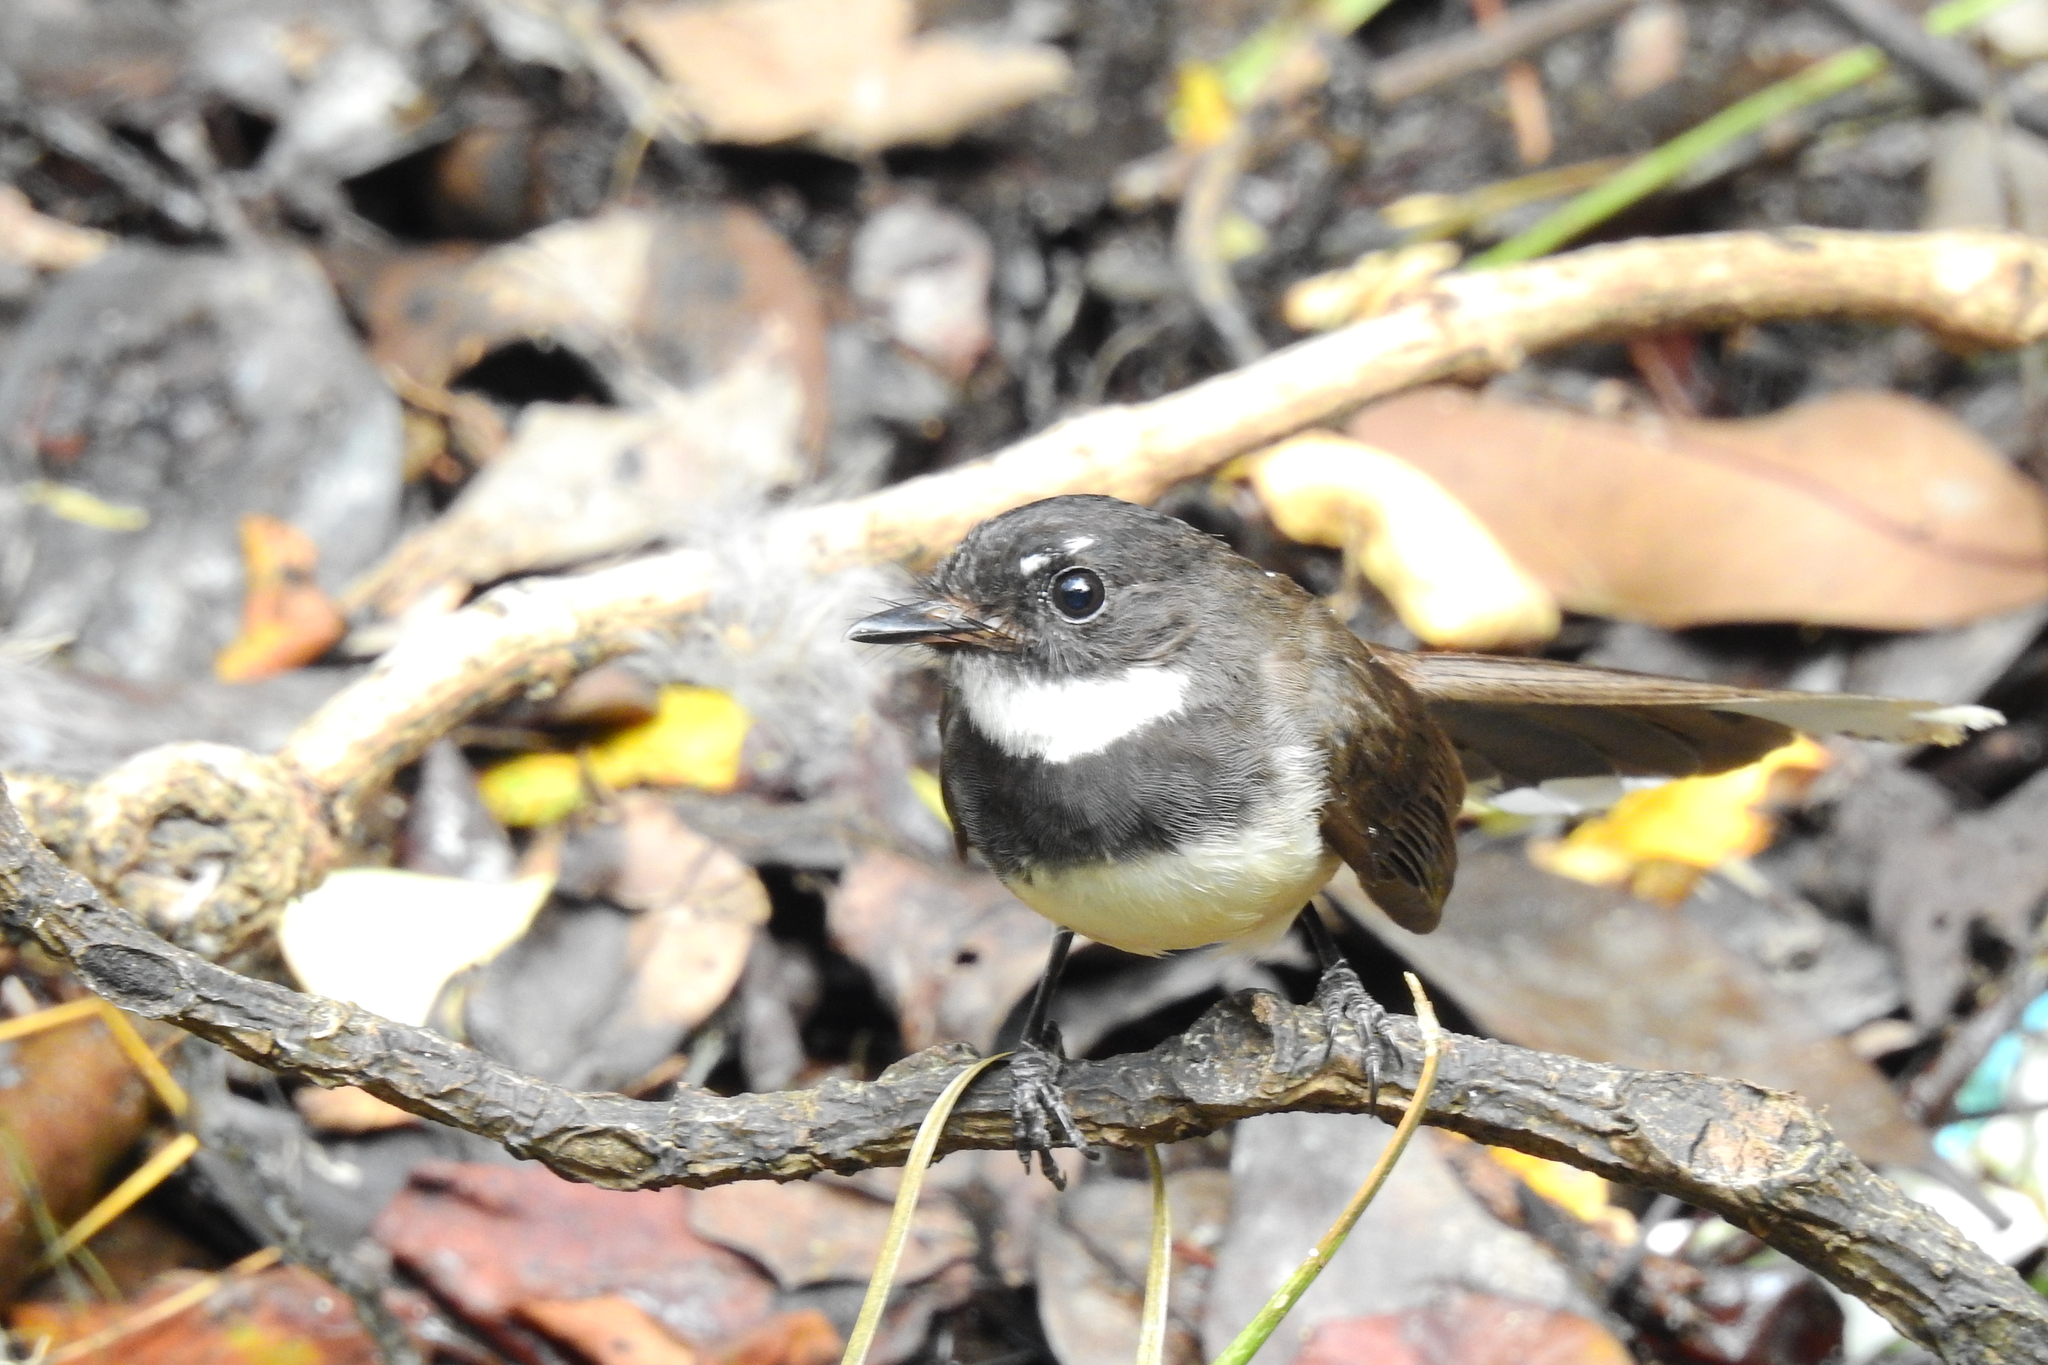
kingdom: Animalia
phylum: Chordata
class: Aves
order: Passeriformes
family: Rhipiduridae
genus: Rhipidura
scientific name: Rhipidura javanica
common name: Pied fantail
